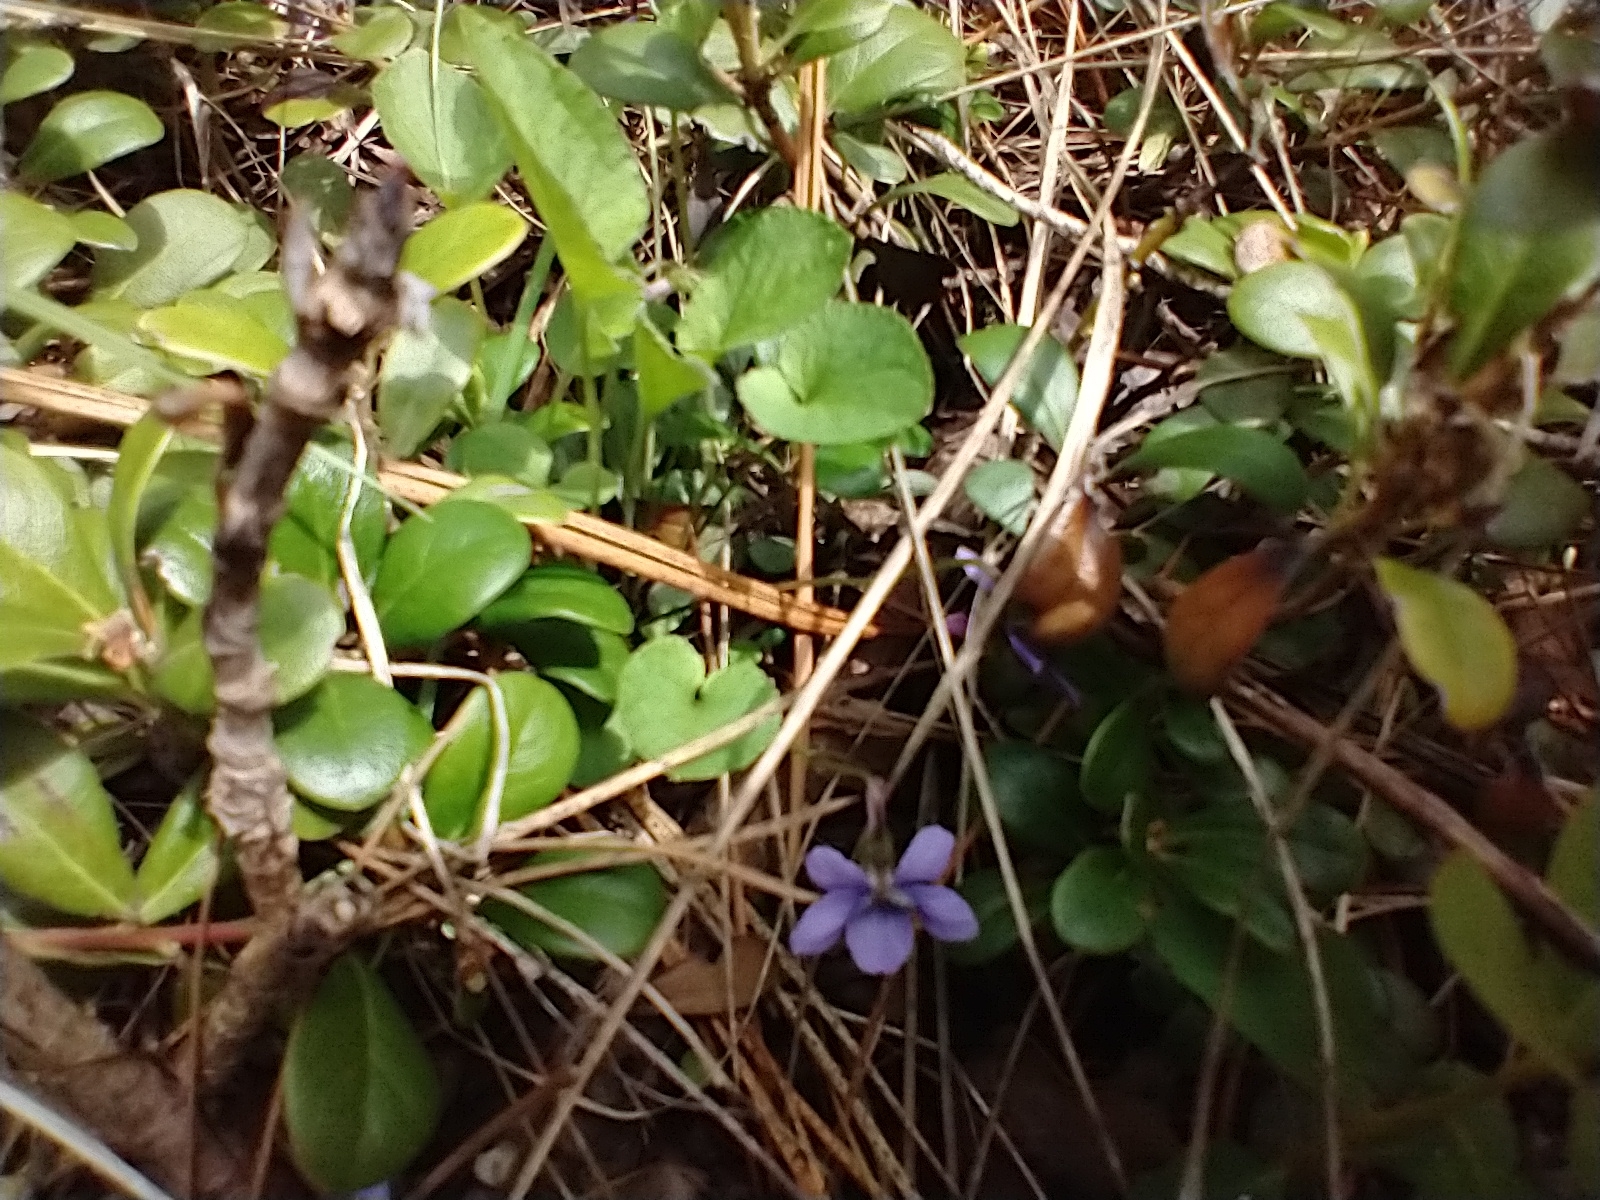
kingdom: Plantae
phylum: Tracheophyta
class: Magnoliopsida
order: Malpighiales
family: Violaceae
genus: Viola
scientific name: Viola adunca
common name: Sand violet
